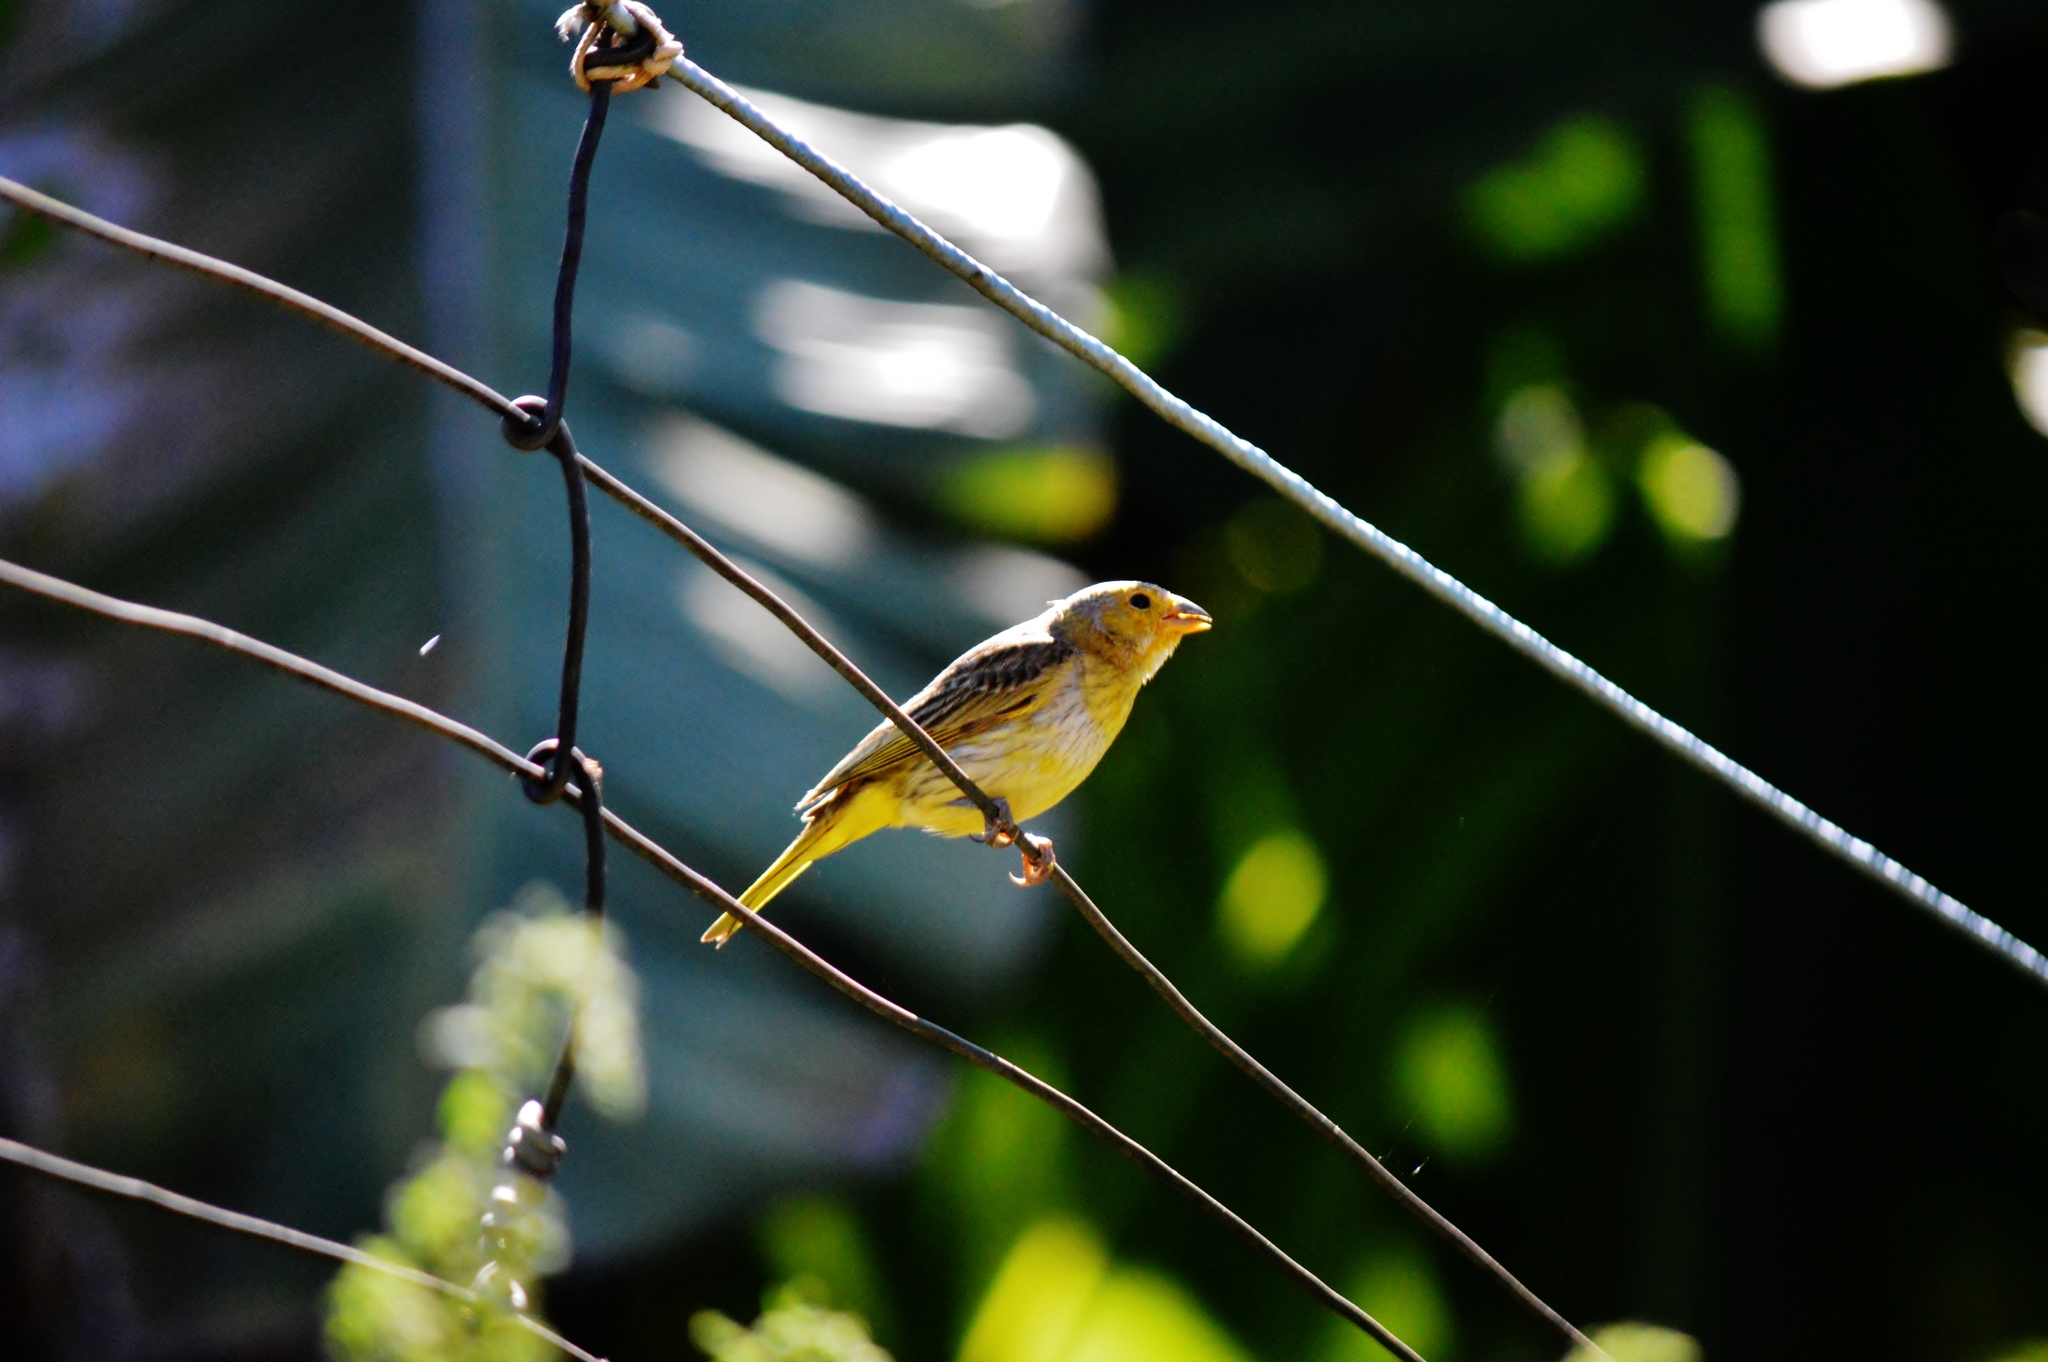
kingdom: Animalia
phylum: Chordata
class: Aves
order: Passeriformes
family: Thraupidae
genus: Sicalis
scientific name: Sicalis flaveola
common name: Saffron finch
